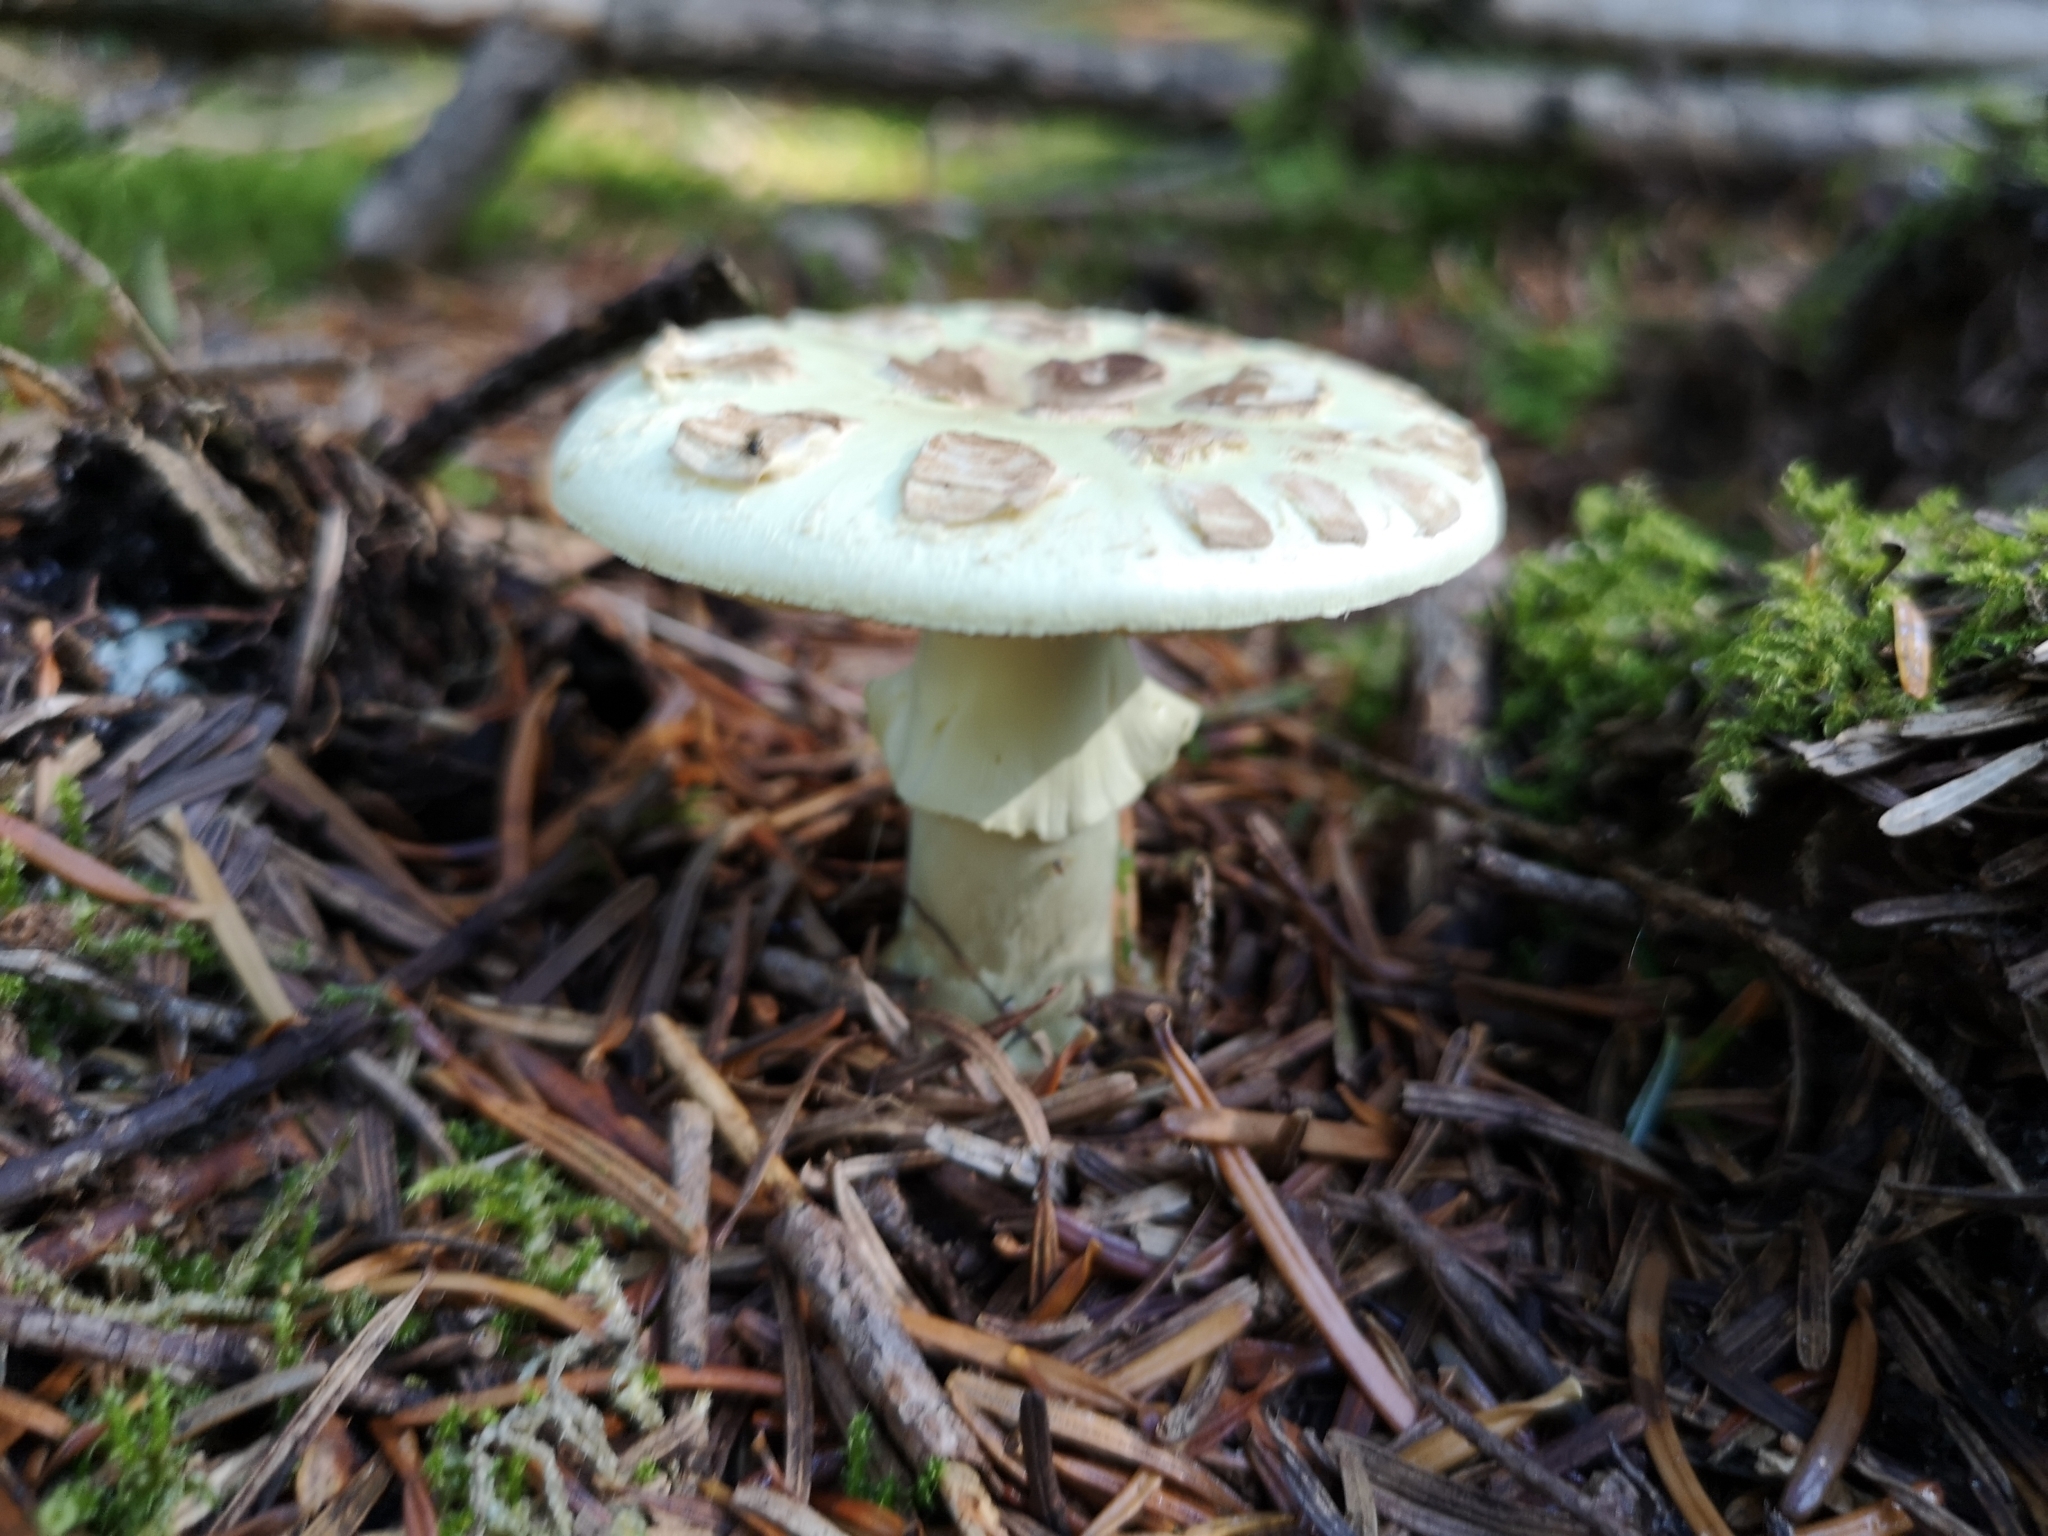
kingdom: Fungi
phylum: Basidiomycota
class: Agaricomycetes
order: Agaricales
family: Amanitaceae
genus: Amanita
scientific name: Amanita citrina
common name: False death-cap
